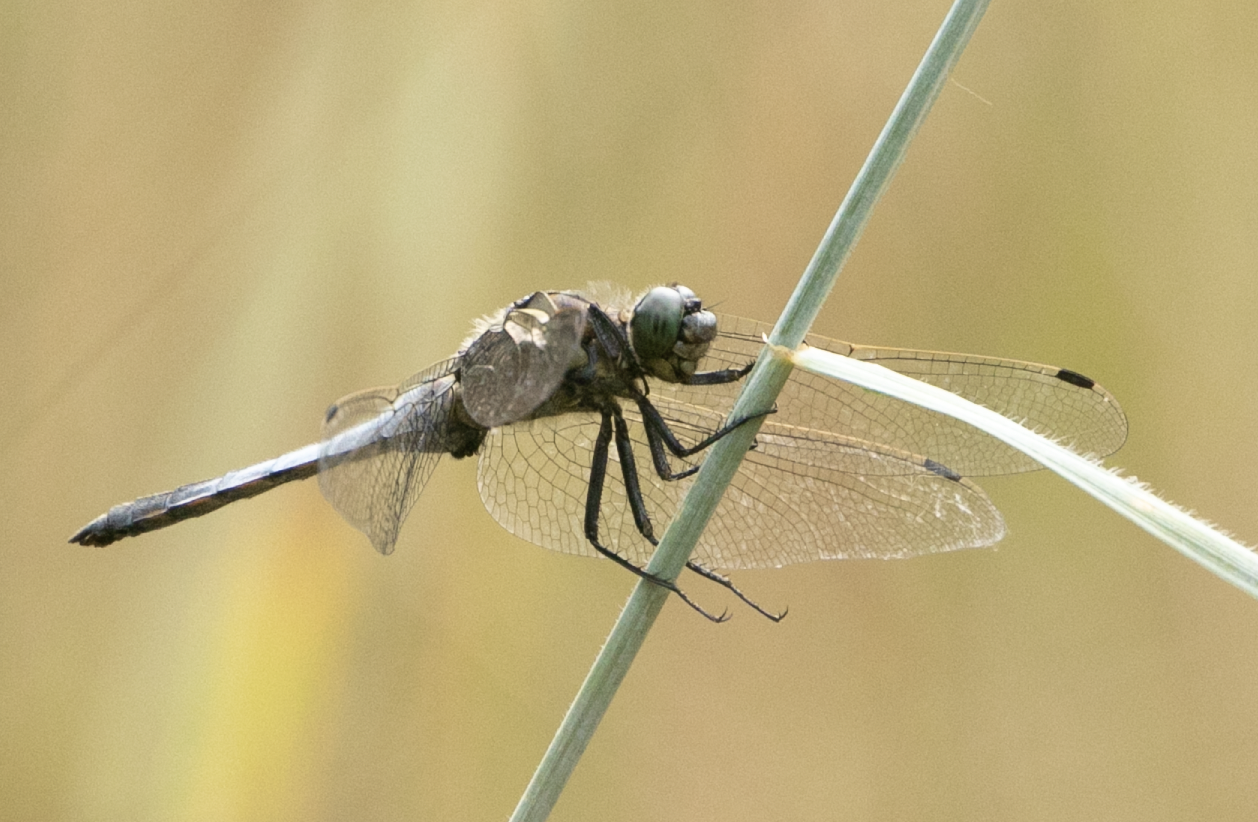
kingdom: Animalia
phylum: Arthropoda
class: Insecta
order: Odonata
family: Libellulidae
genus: Orthetrum
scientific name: Orthetrum cancellatum
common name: Black-tailed skimmer
